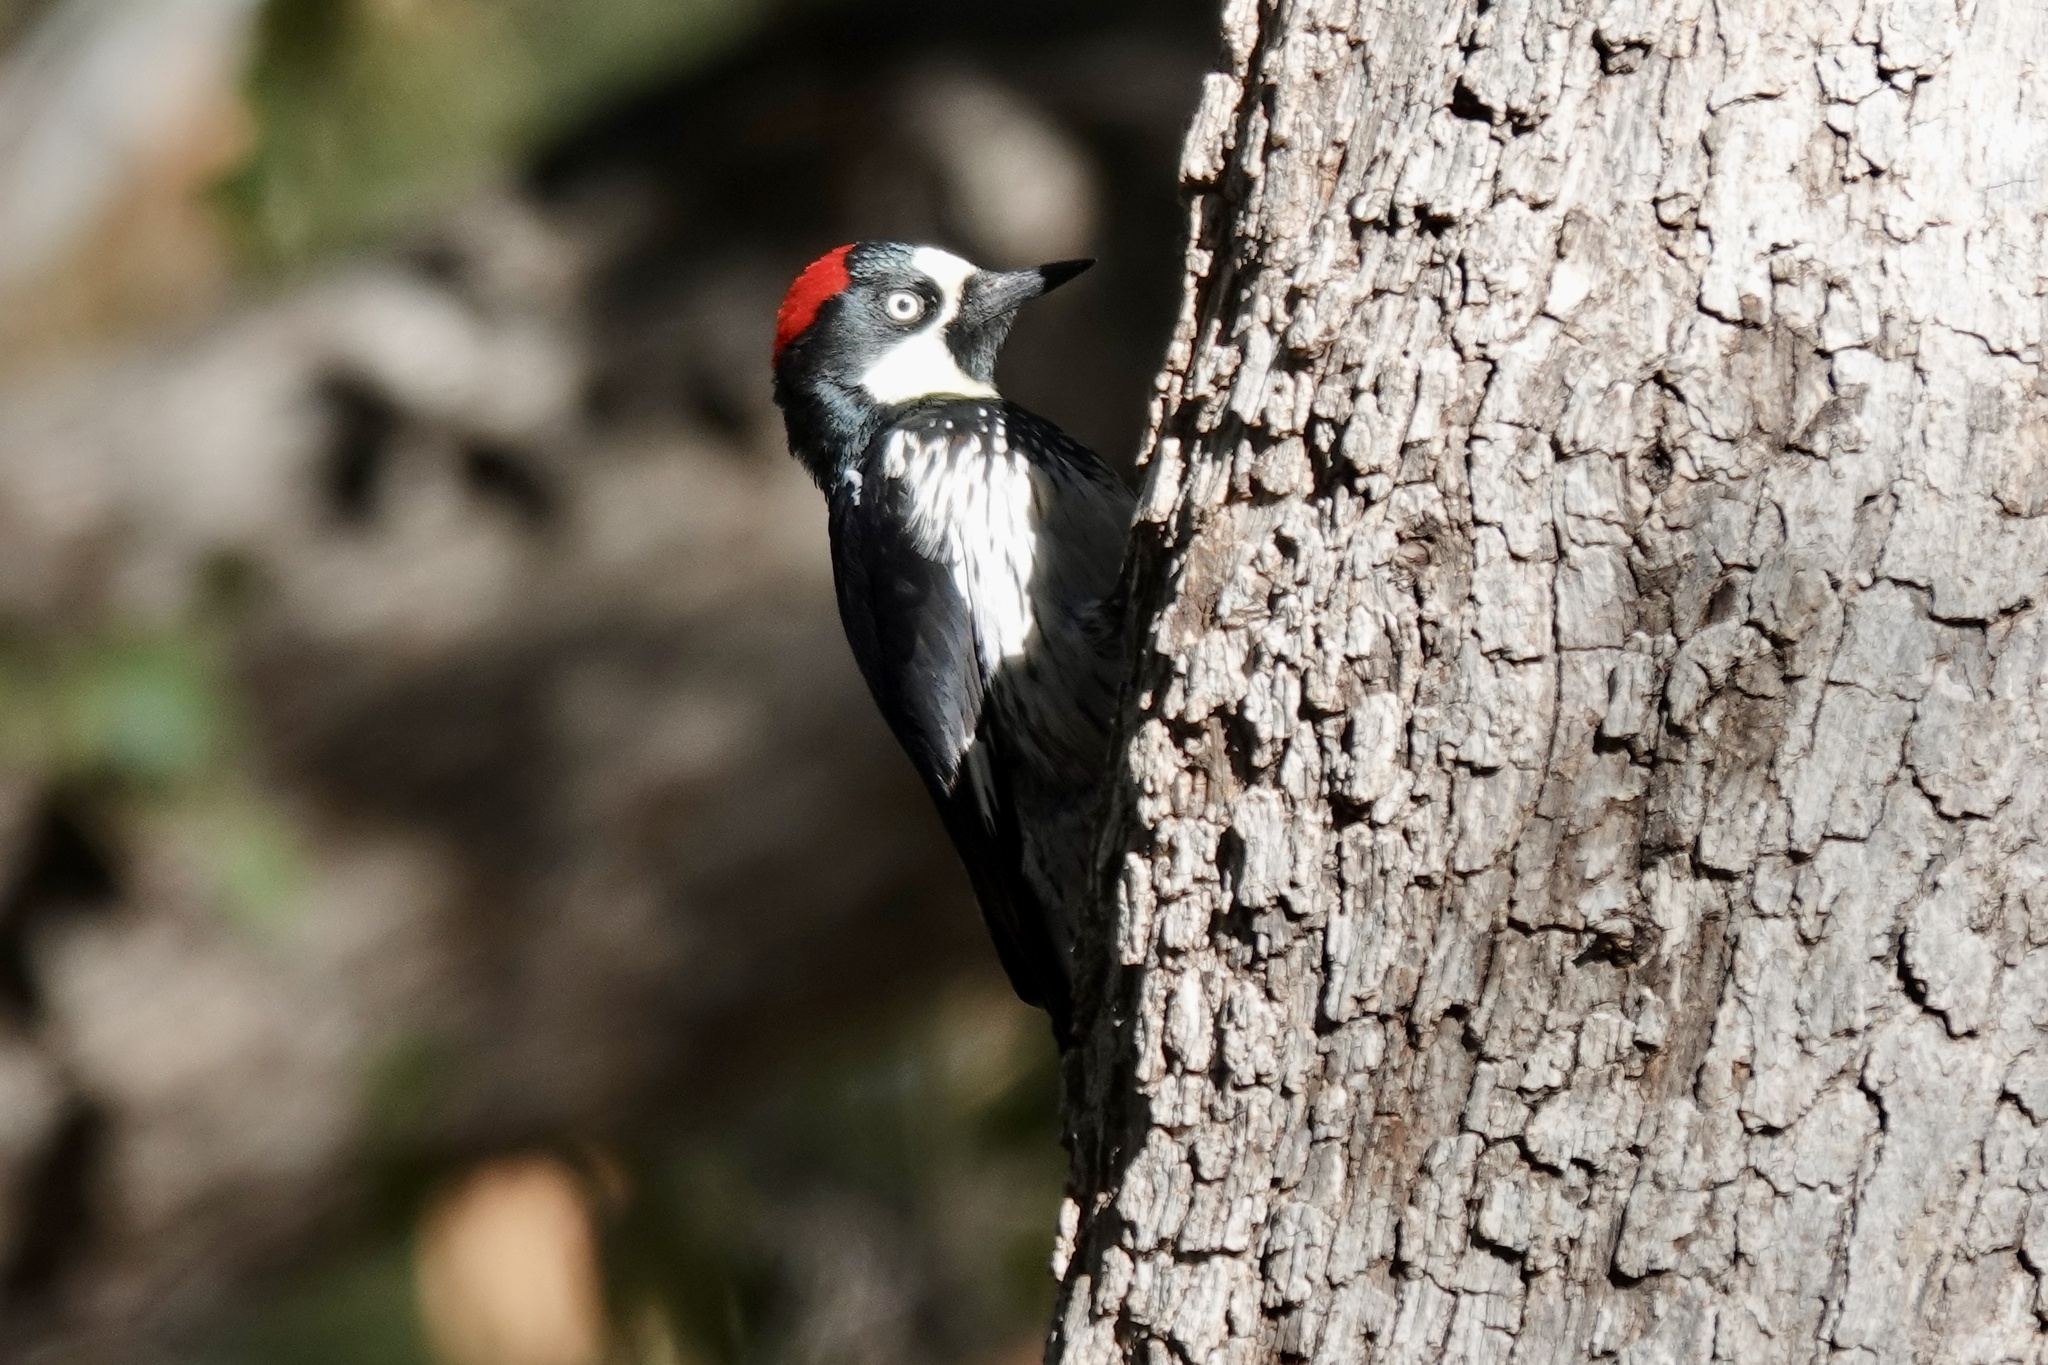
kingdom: Animalia
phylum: Chordata
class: Aves
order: Piciformes
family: Picidae
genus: Melanerpes
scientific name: Melanerpes formicivorus
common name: Acorn woodpecker
